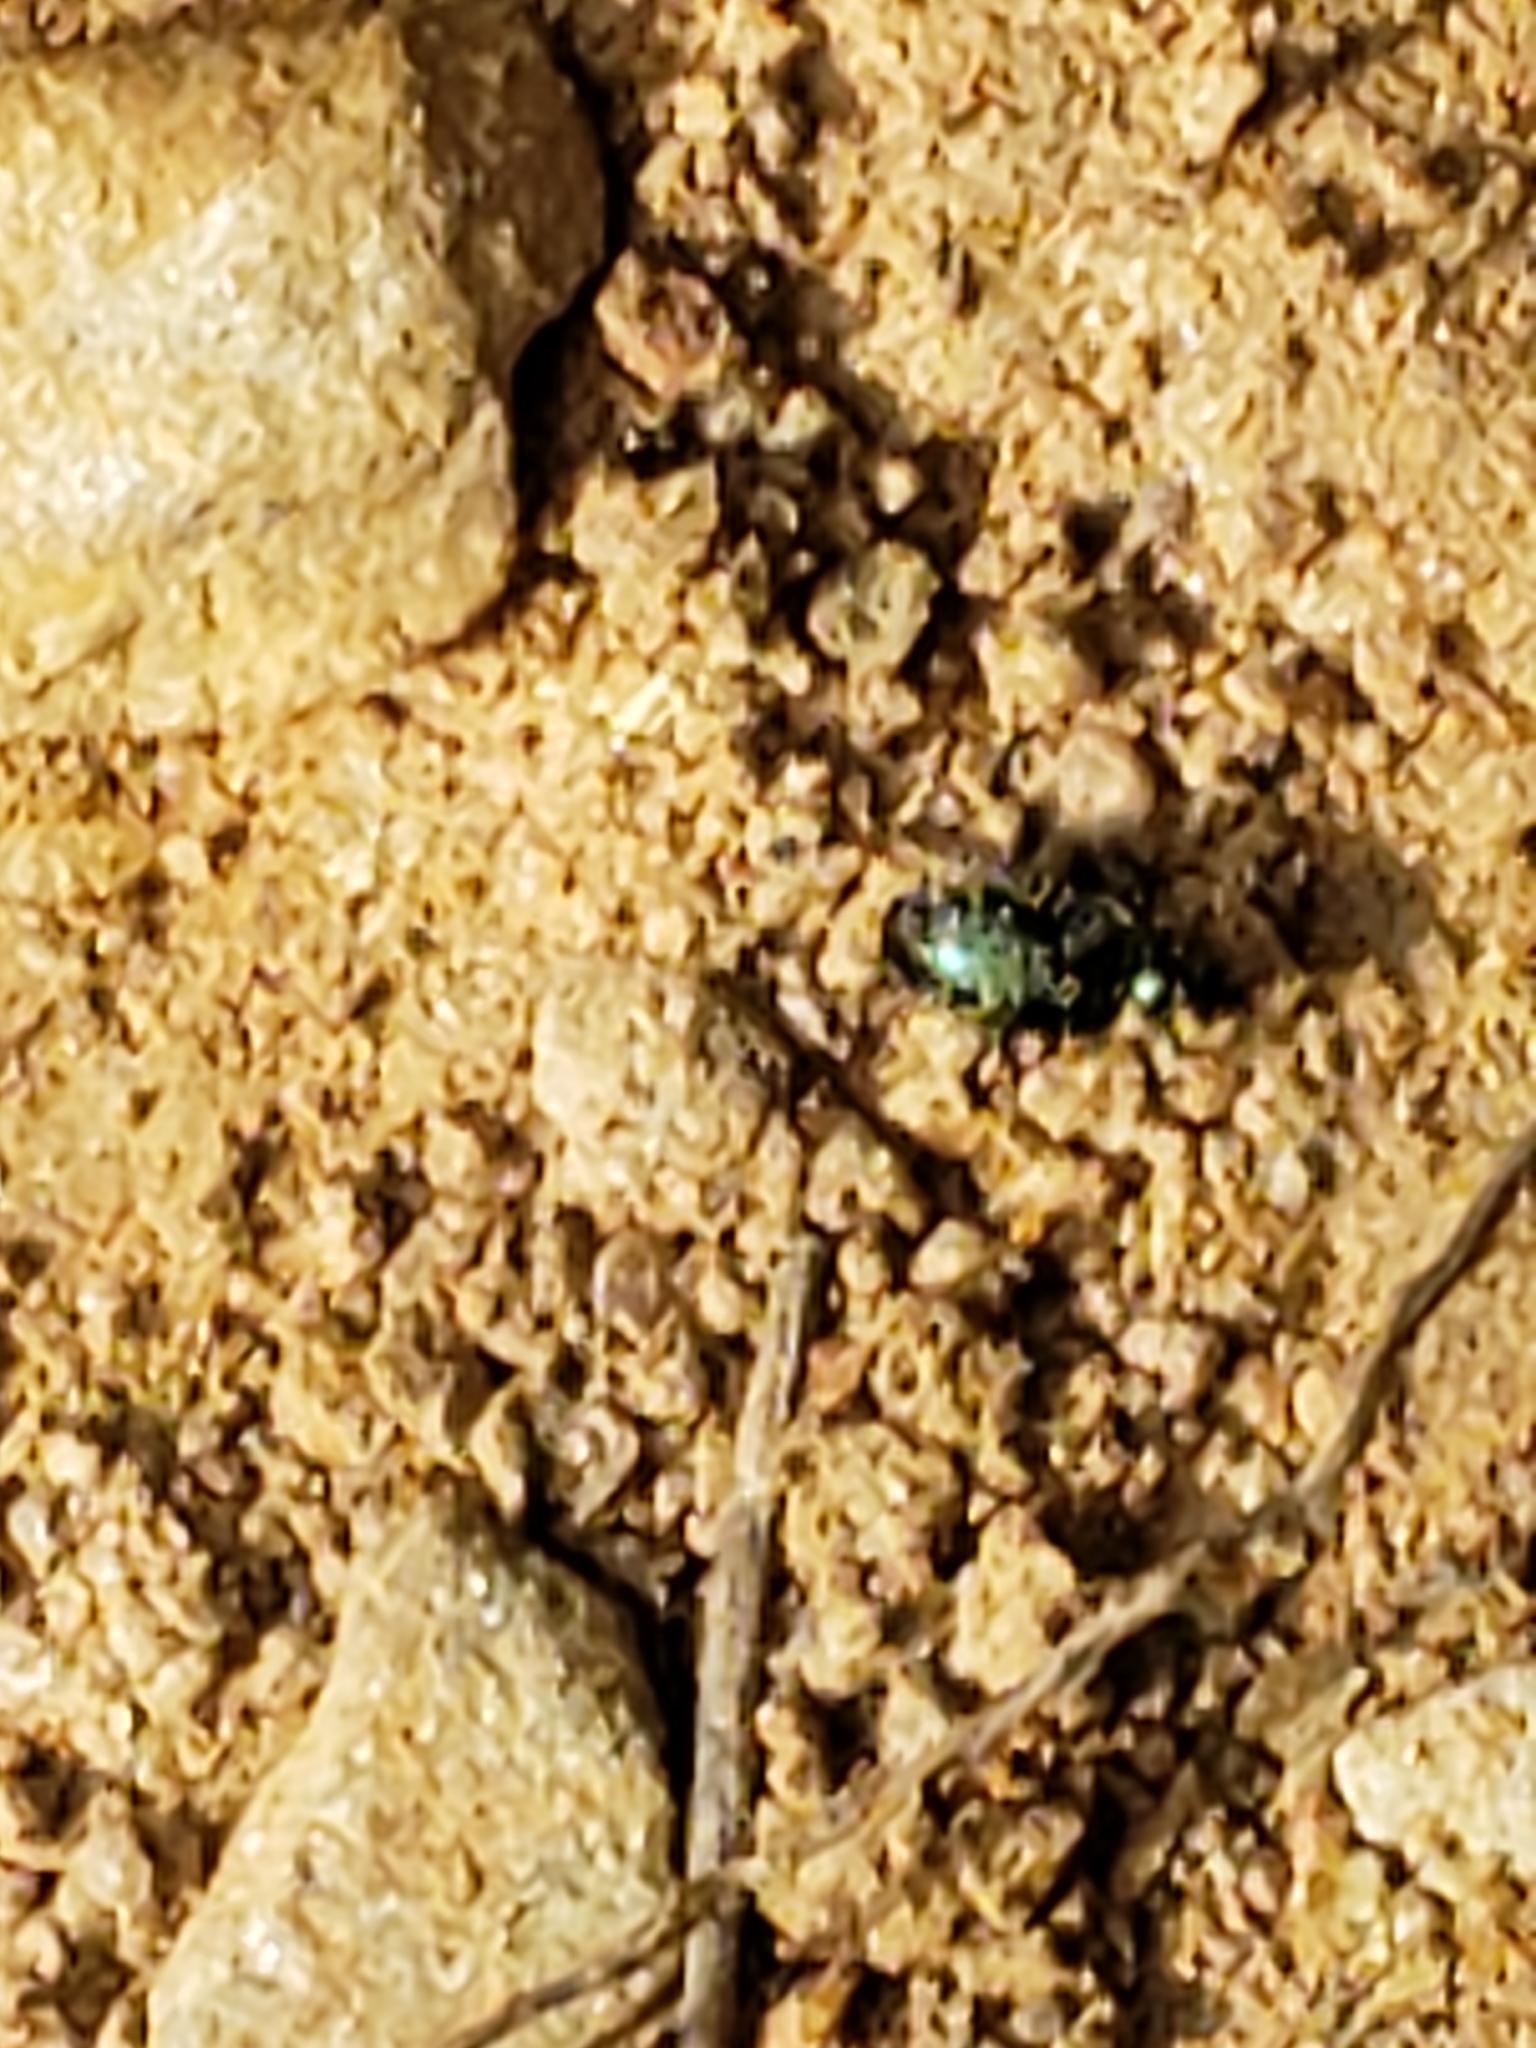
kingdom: Animalia
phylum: Arthropoda
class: Insecta
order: Coleoptera
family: Carabidae
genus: Lebia
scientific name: Lebia viridis
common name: Flower lebia beetle
